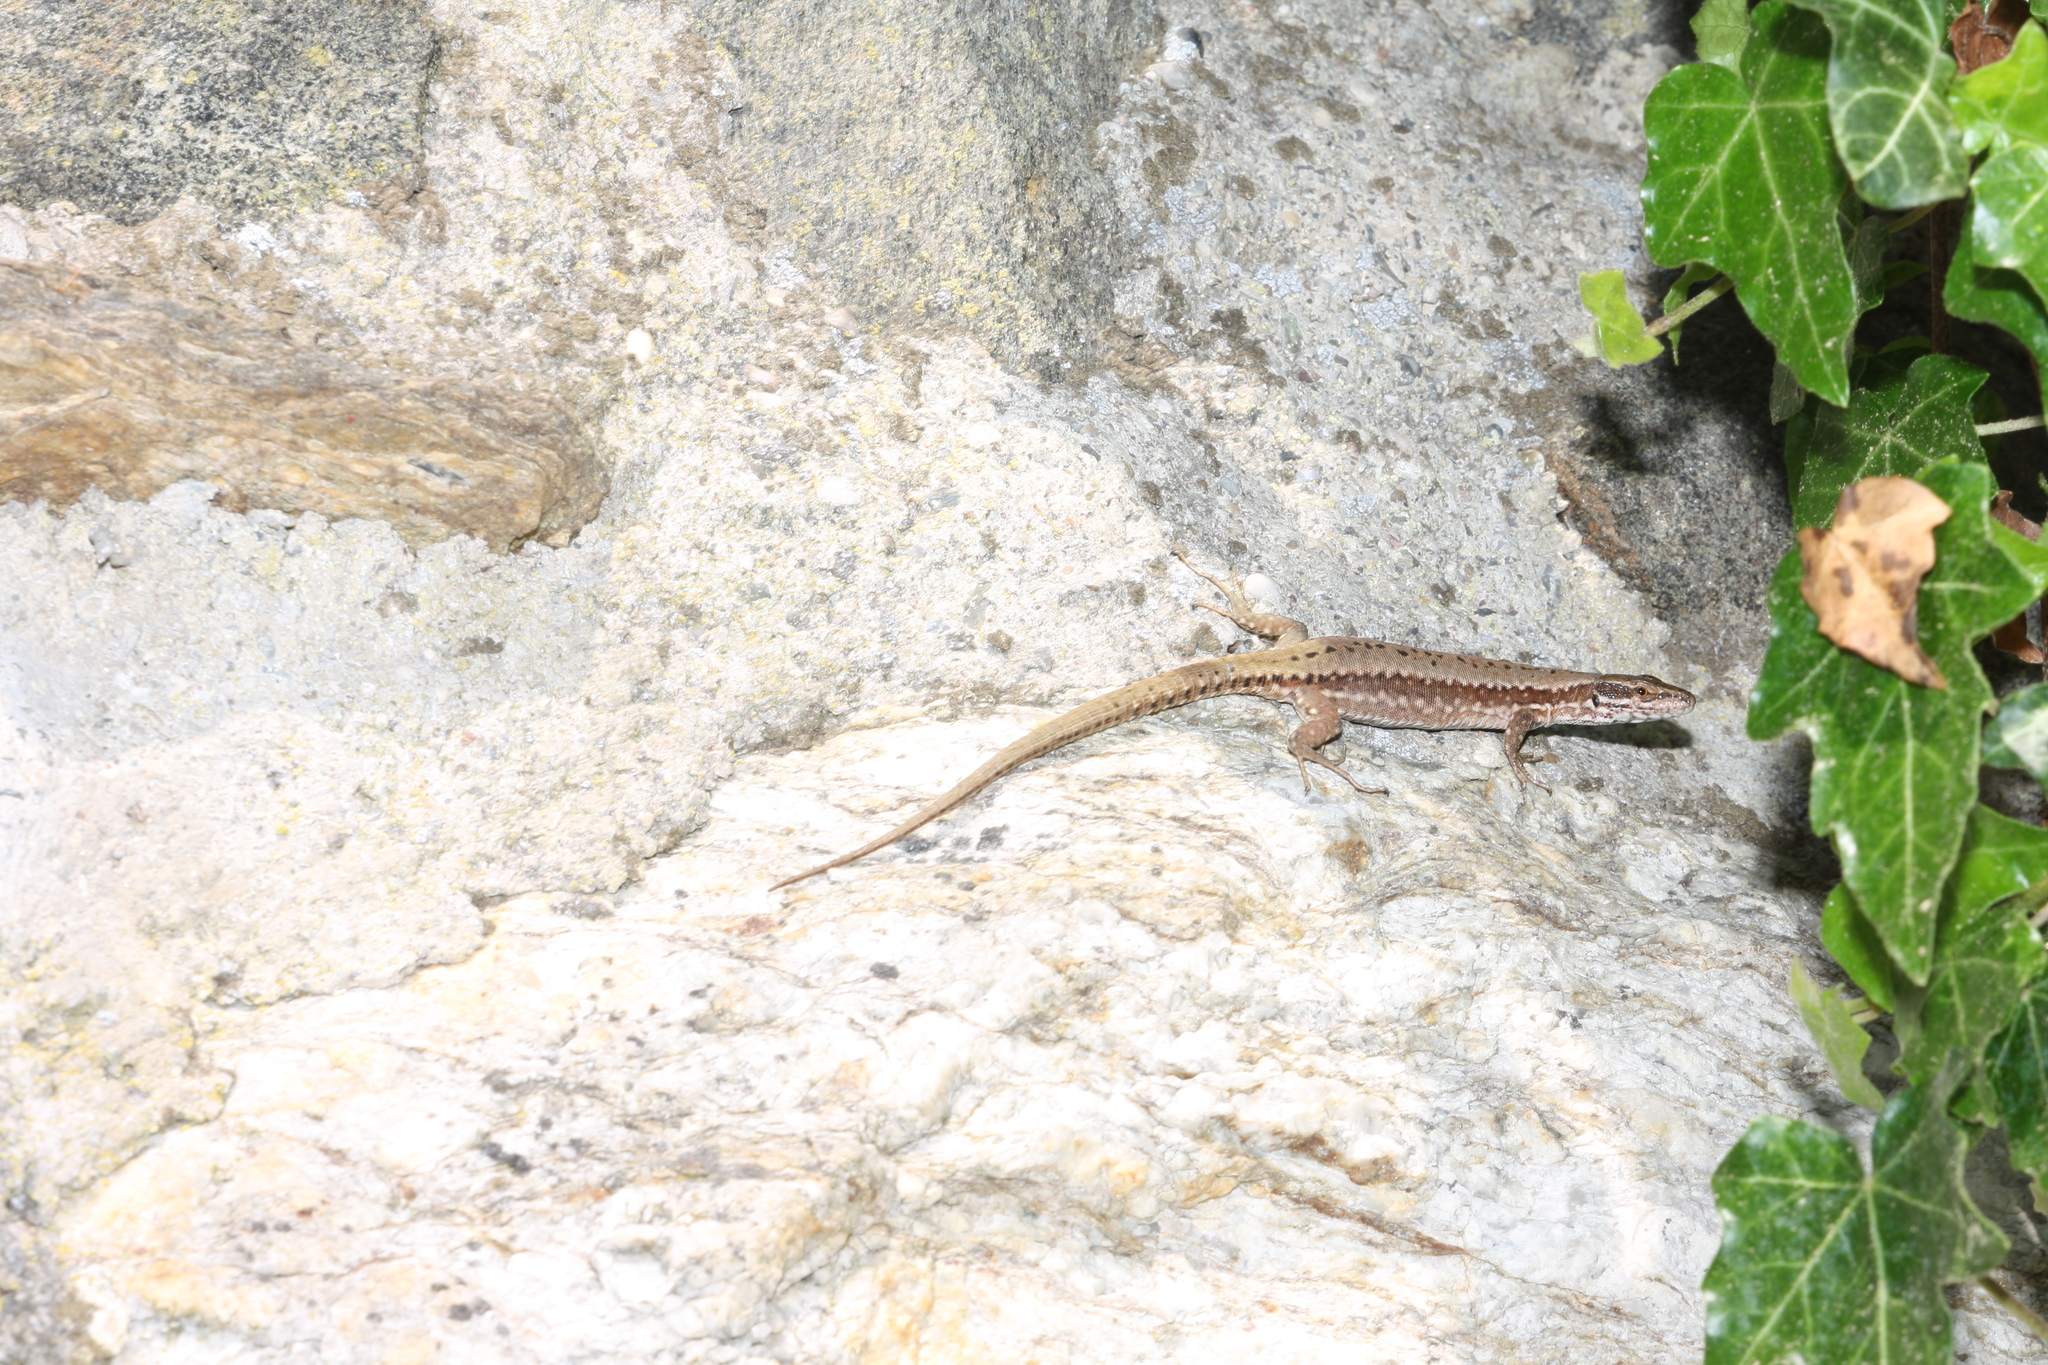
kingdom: Animalia
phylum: Chordata
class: Squamata
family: Lacertidae
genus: Podarcis
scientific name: Podarcis muralis
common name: Common wall lizard
